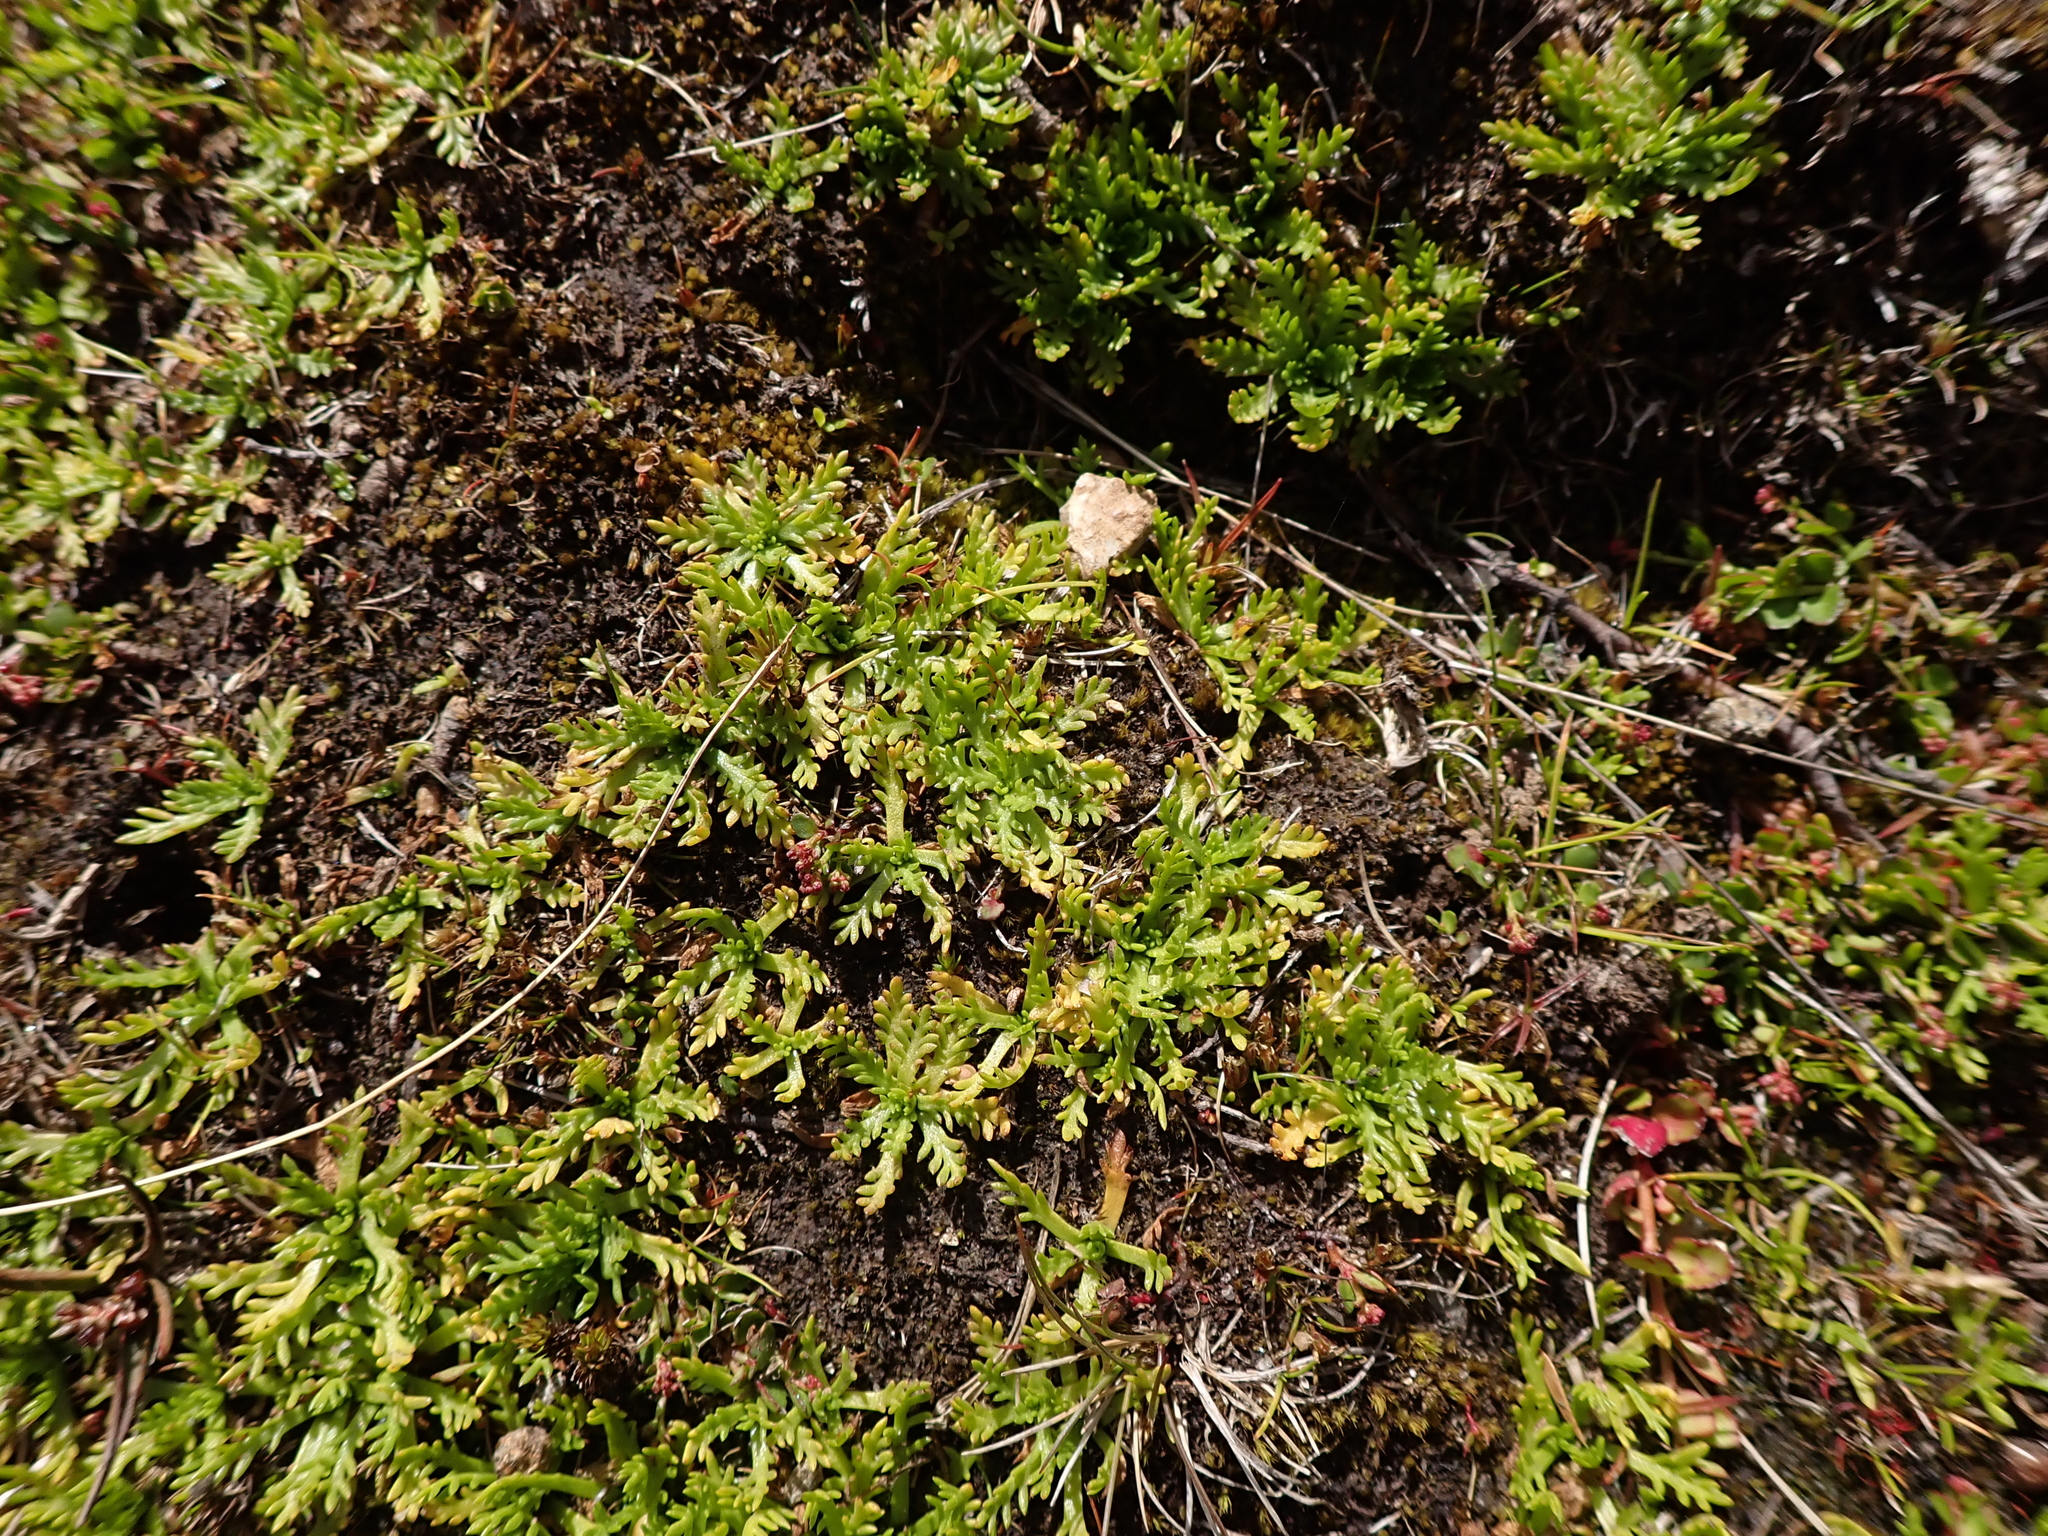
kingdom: Plantae
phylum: Tracheophyta
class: Magnoliopsida
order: Asterales
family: Asteraceae
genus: Cotula
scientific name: Cotula alpina
